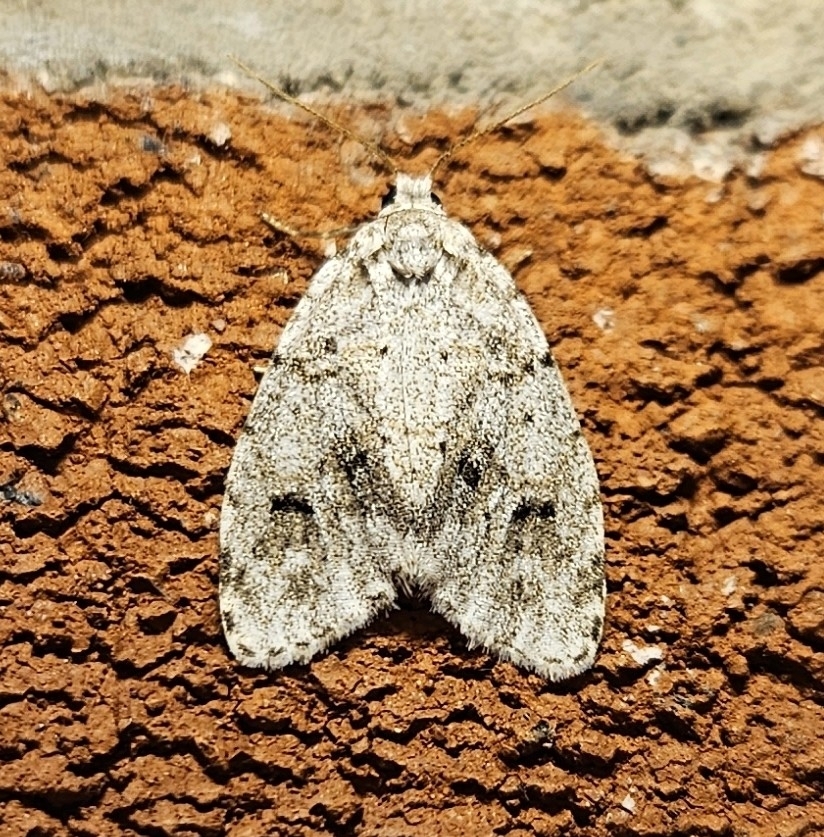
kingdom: Animalia
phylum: Arthropoda
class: Insecta
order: Lepidoptera
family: Erebidae
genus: Clemensia
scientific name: Clemensia albata
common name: Little white lichen moth
